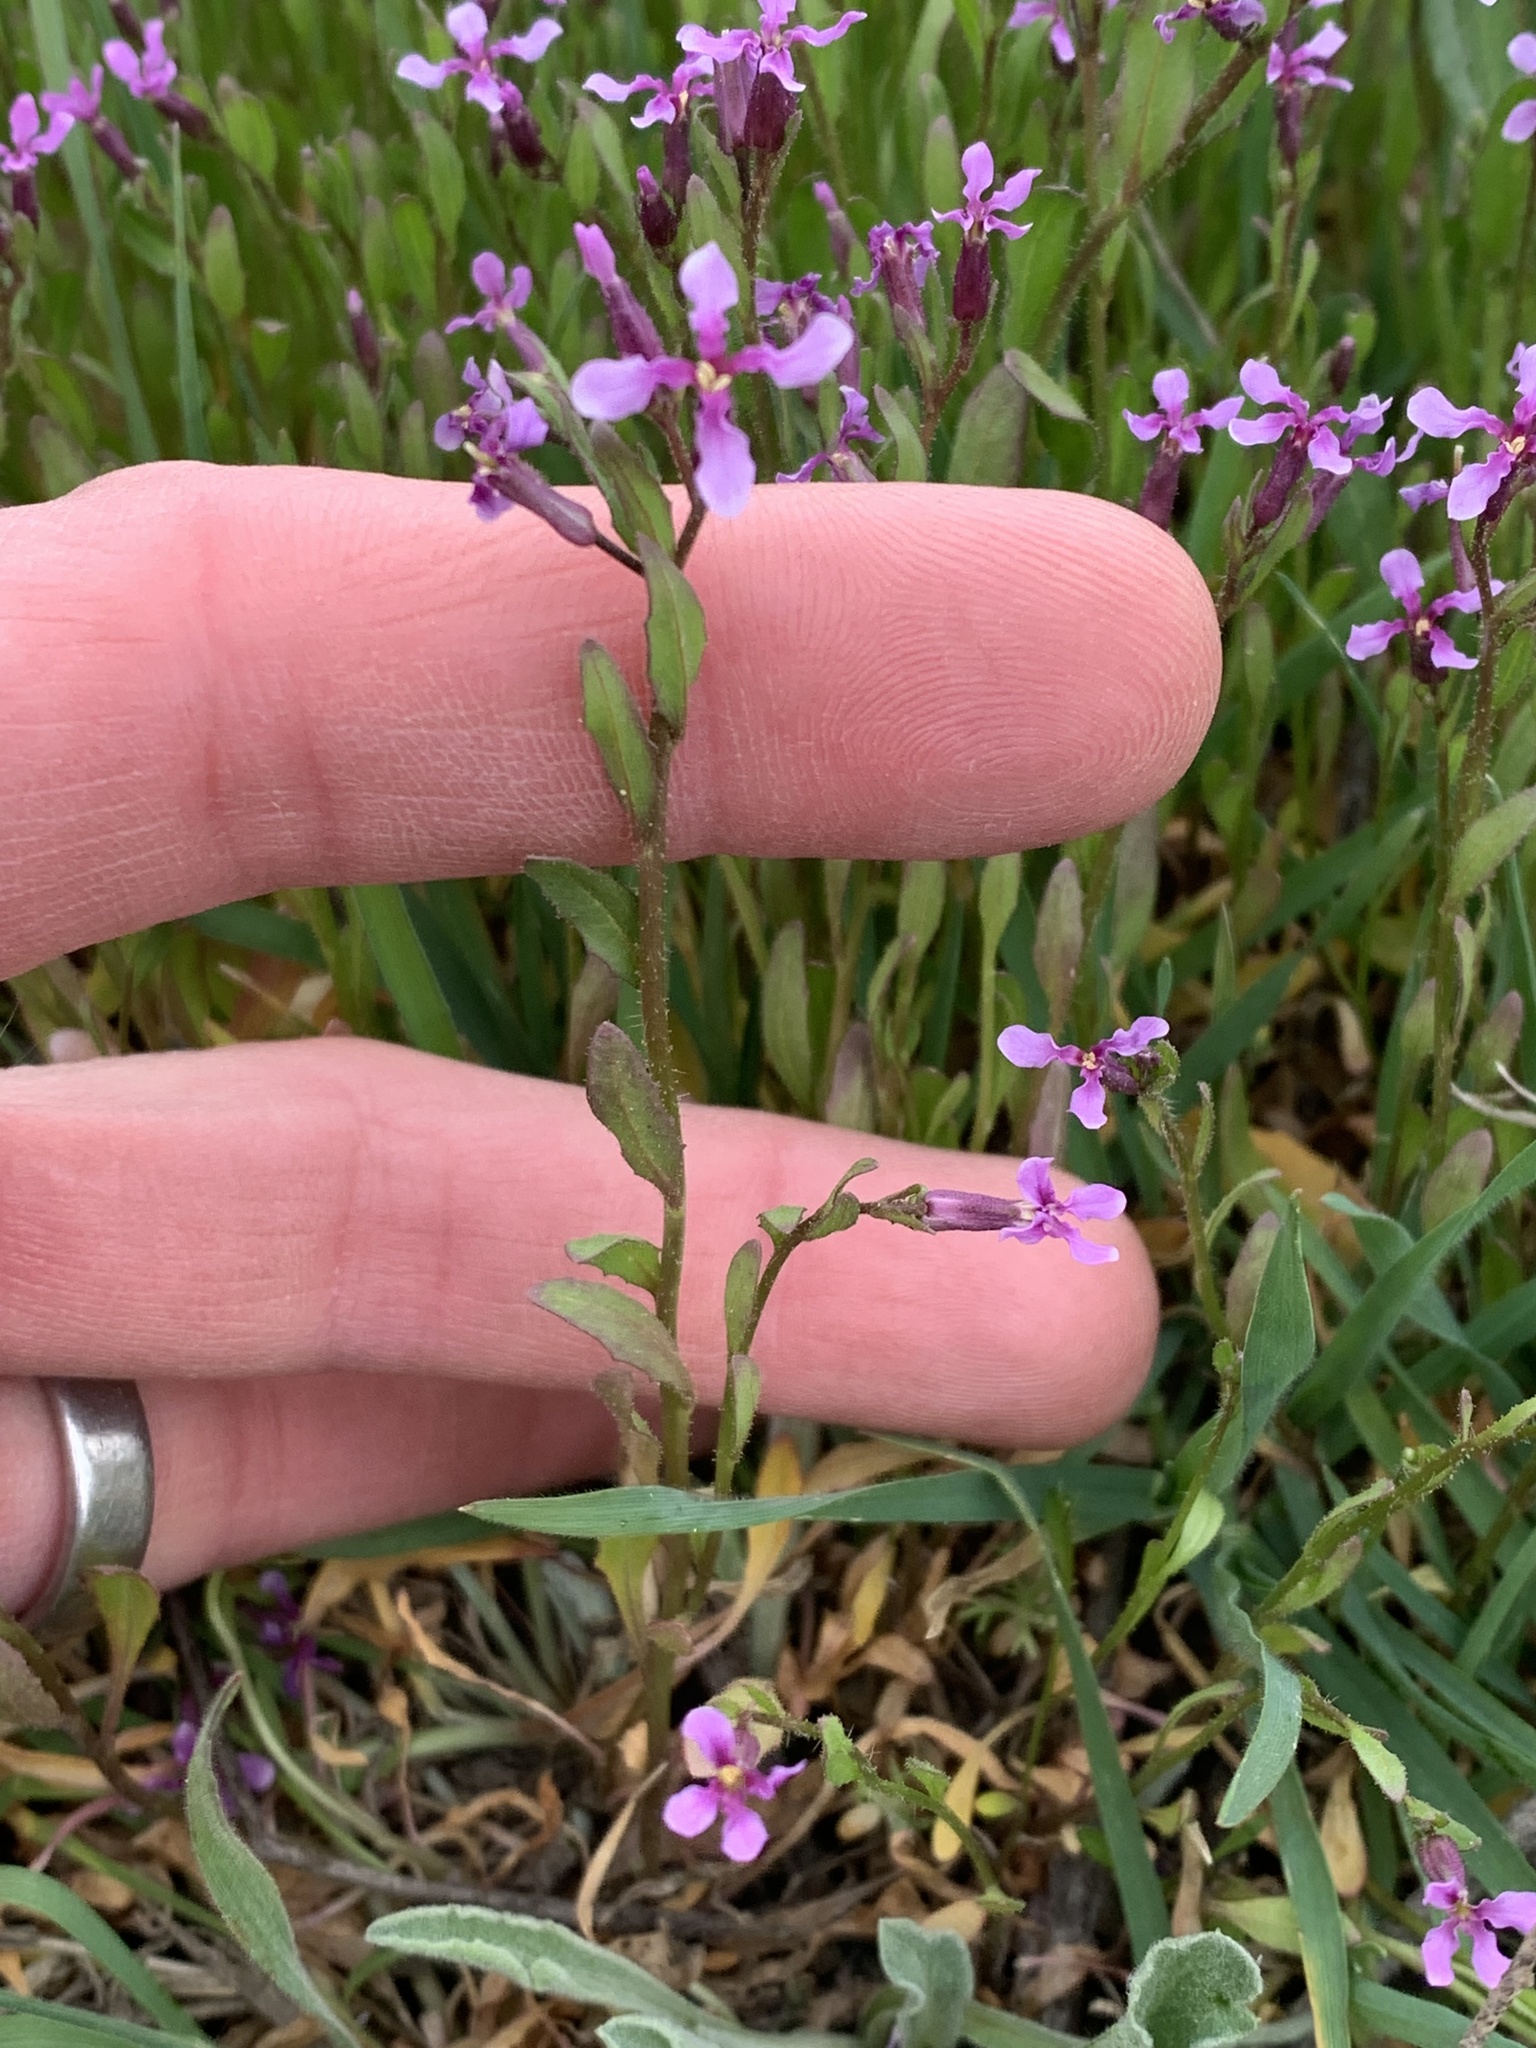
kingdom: Plantae
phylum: Tracheophyta
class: Magnoliopsida
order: Brassicales
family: Brassicaceae
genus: Chorispora
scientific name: Chorispora tenella
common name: Crossflower
